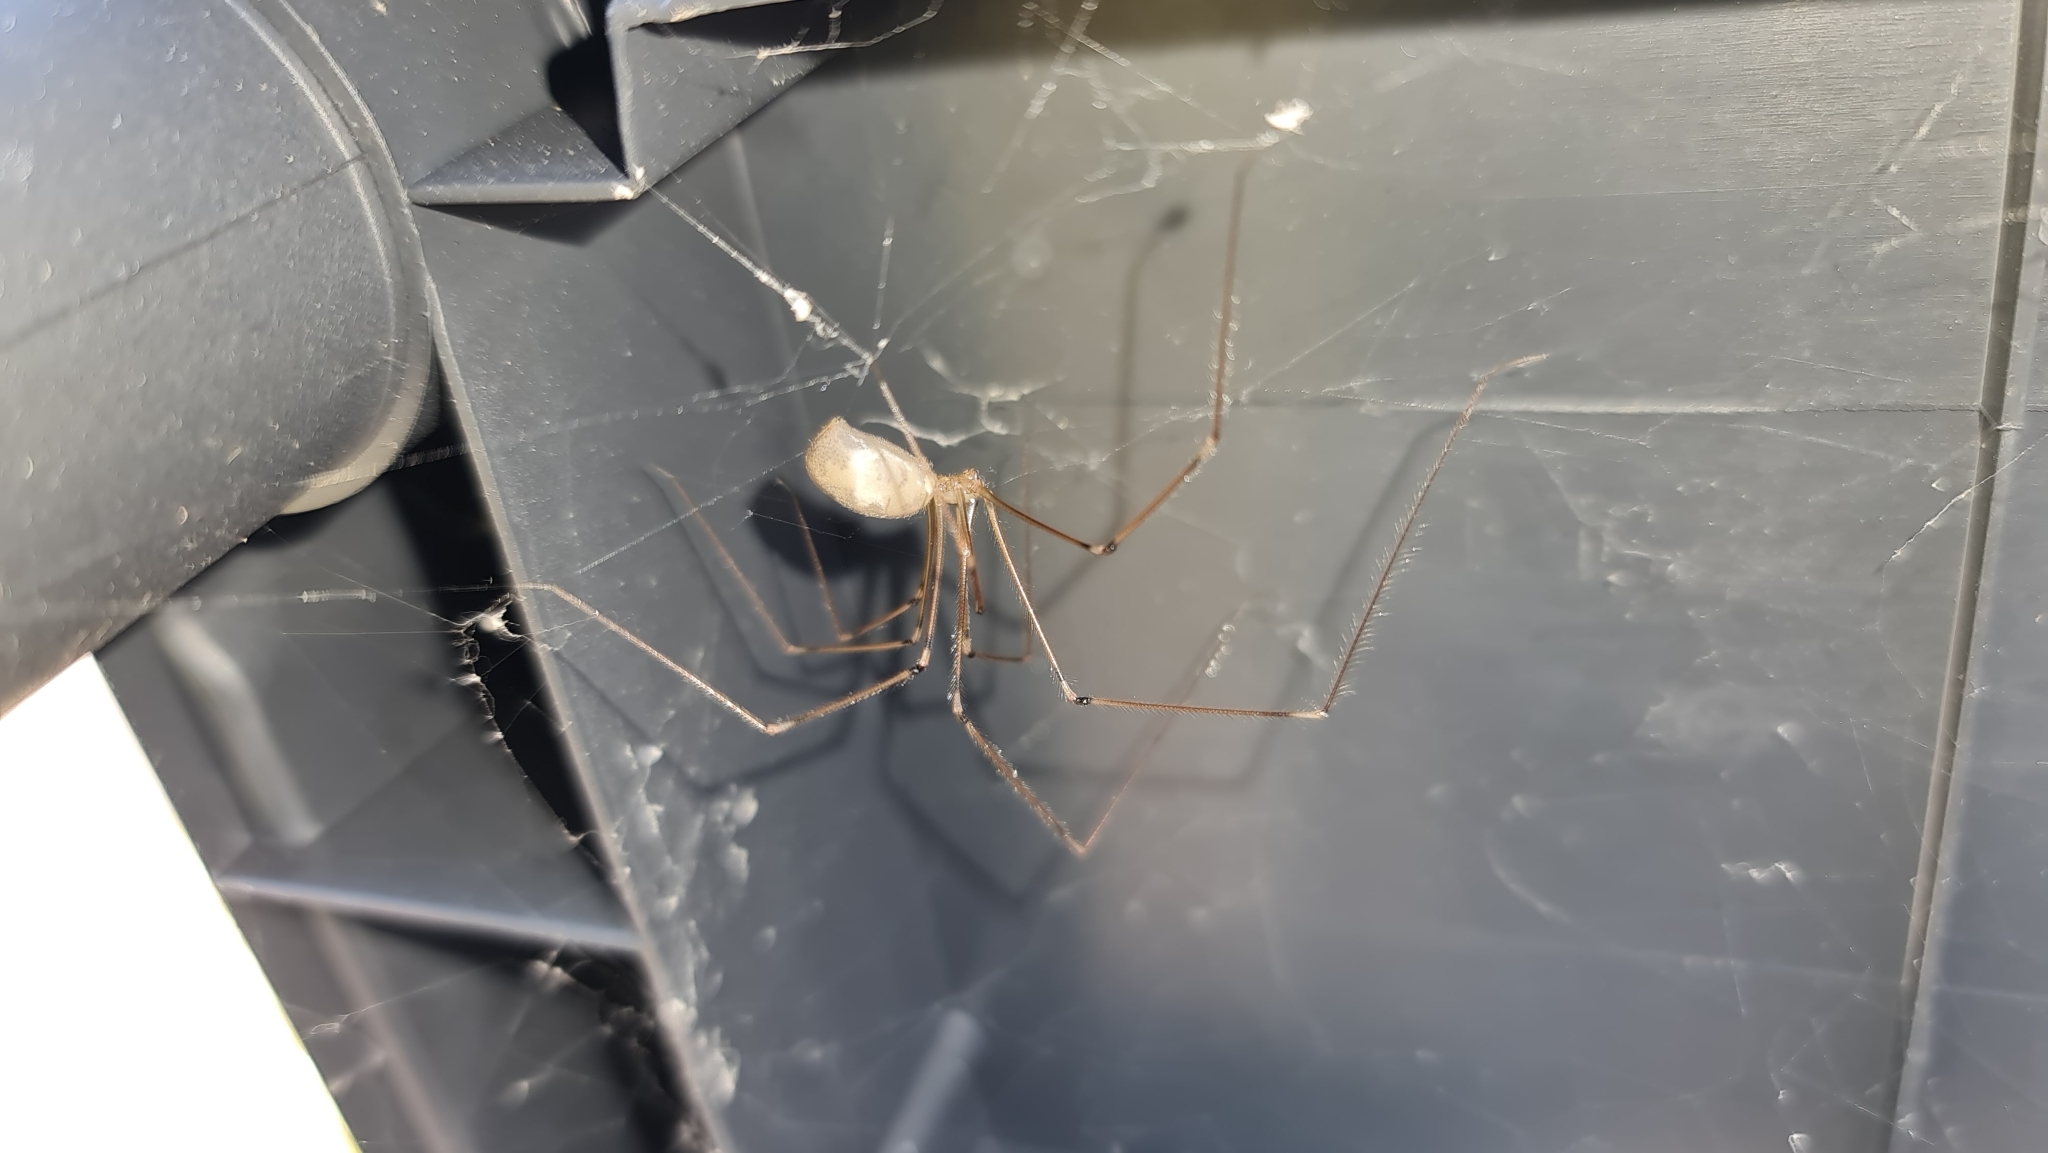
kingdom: Animalia
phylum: Arthropoda
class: Arachnida
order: Araneae
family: Pholcidae
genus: Pholcus
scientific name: Pholcus phalangioides
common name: Longbodied cellar spider
